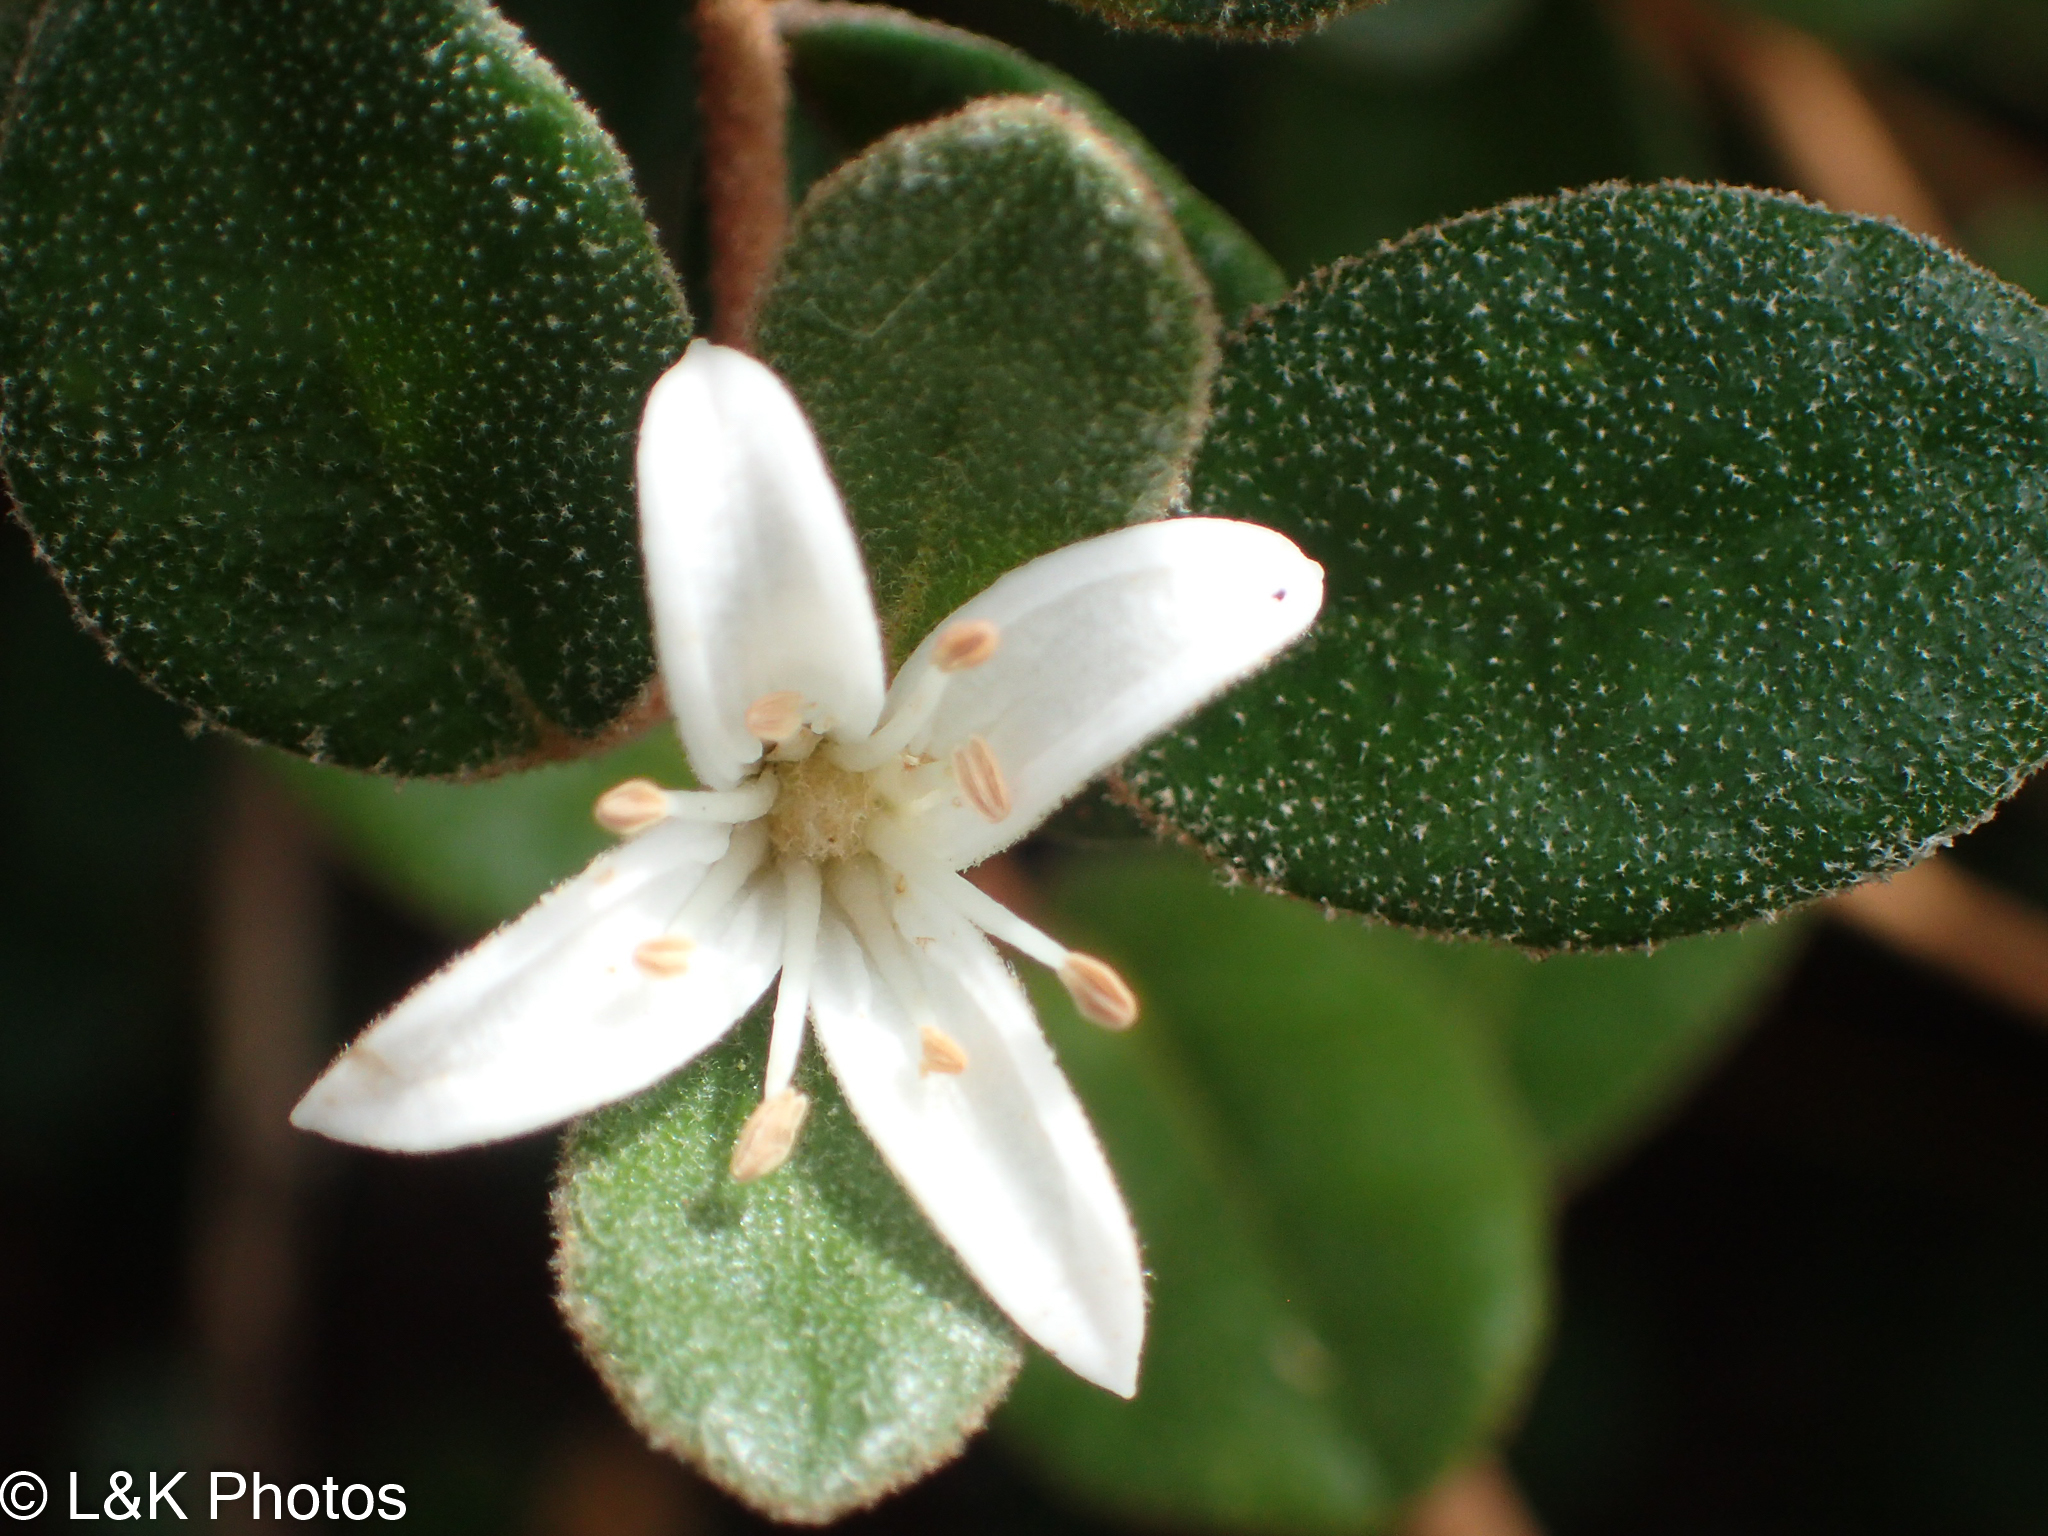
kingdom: Plantae
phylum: Tracheophyta
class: Magnoliopsida
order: Sapindales
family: Rutaceae
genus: Correa
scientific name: Correa alba
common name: White correa
